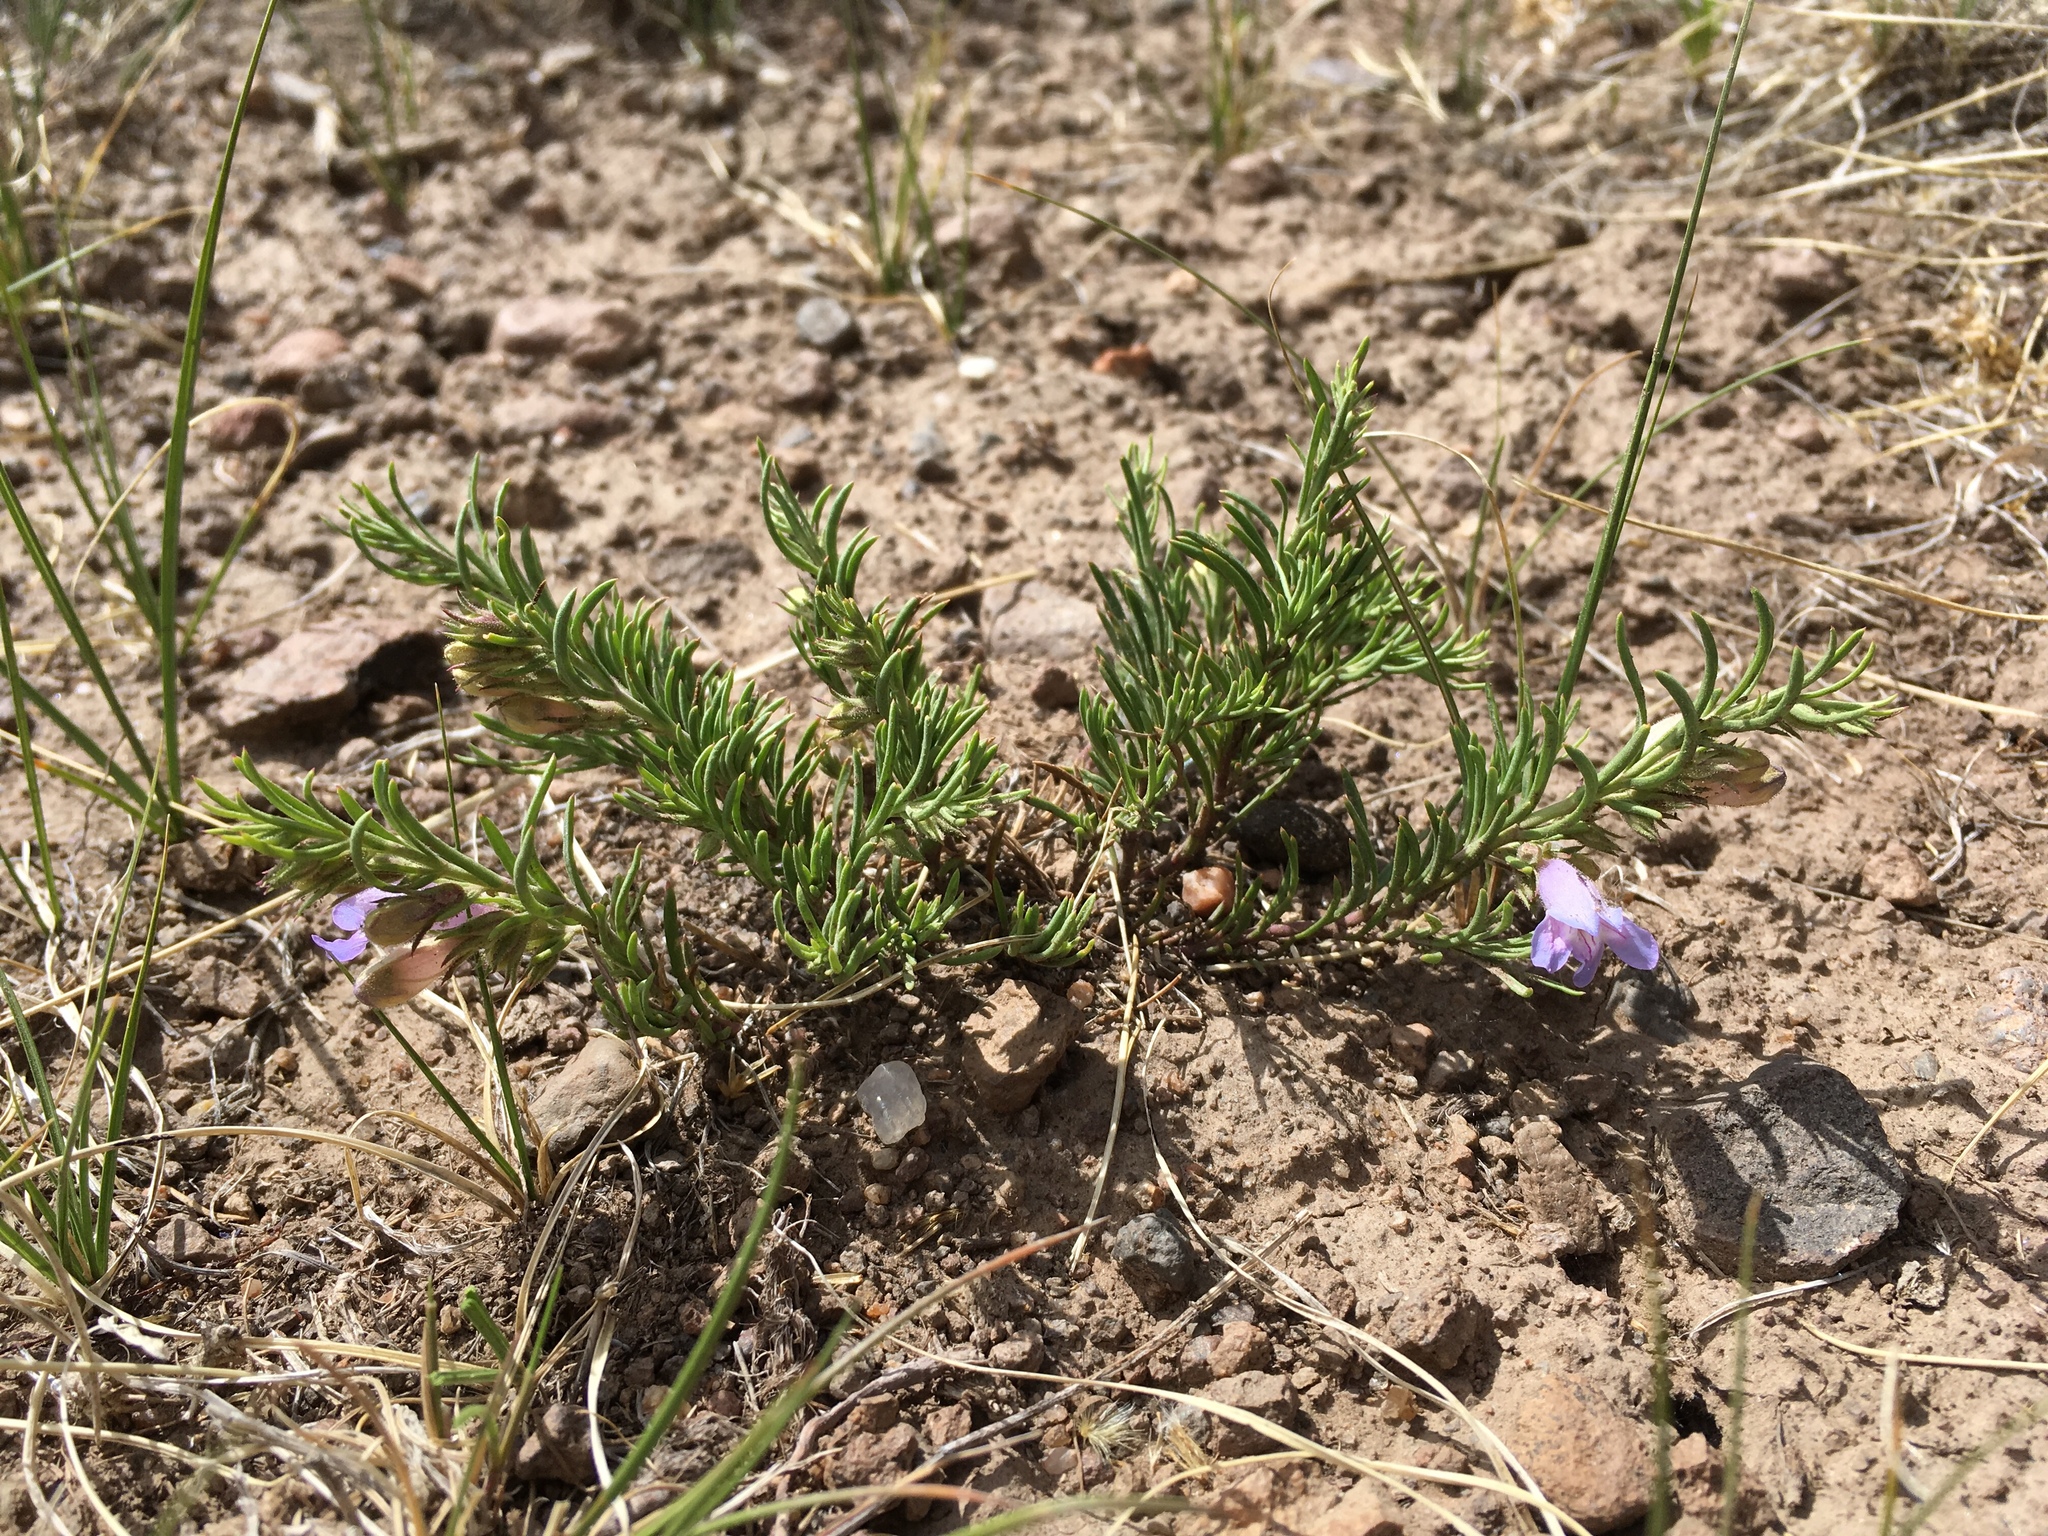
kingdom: Plantae
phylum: Tracheophyta
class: Magnoliopsida
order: Lamiales
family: Plantaginaceae
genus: Penstemon
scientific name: Penstemon crandallii
